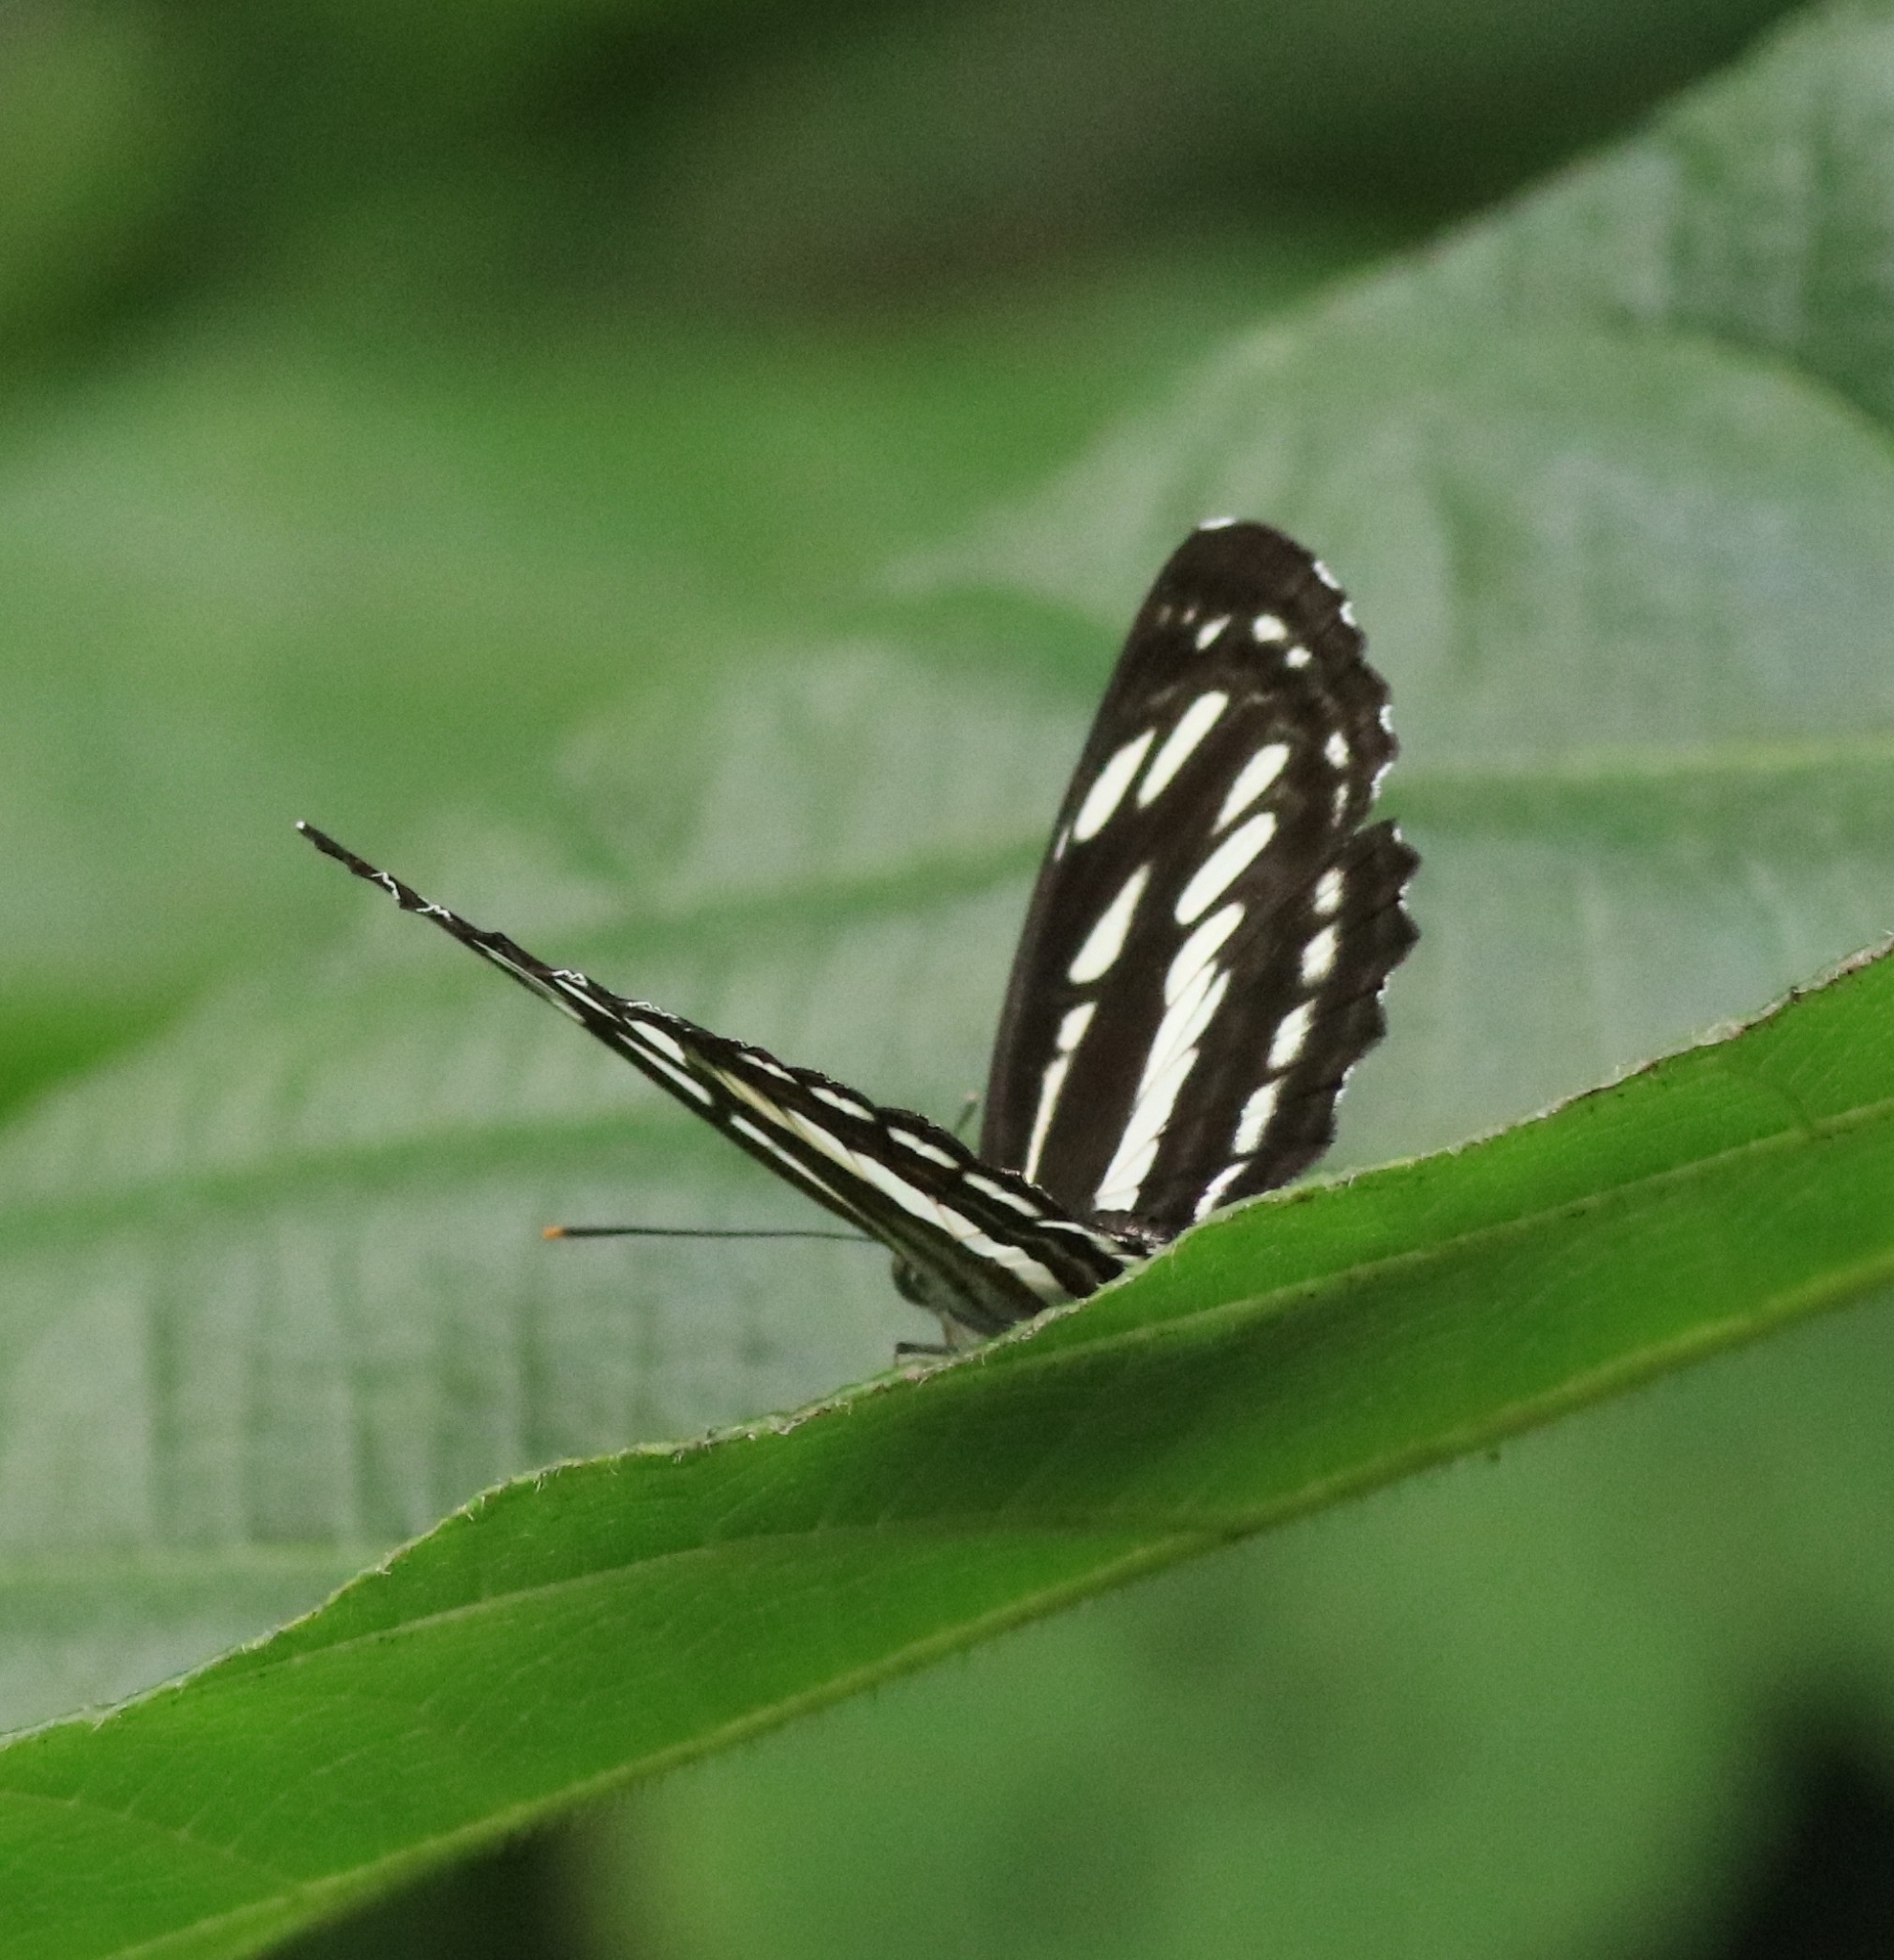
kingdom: Animalia
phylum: Arthropoda
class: Insecta
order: Lepidoptera
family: Nymphalidae
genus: Neptis
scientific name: Neptis hylas
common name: Common sailer
